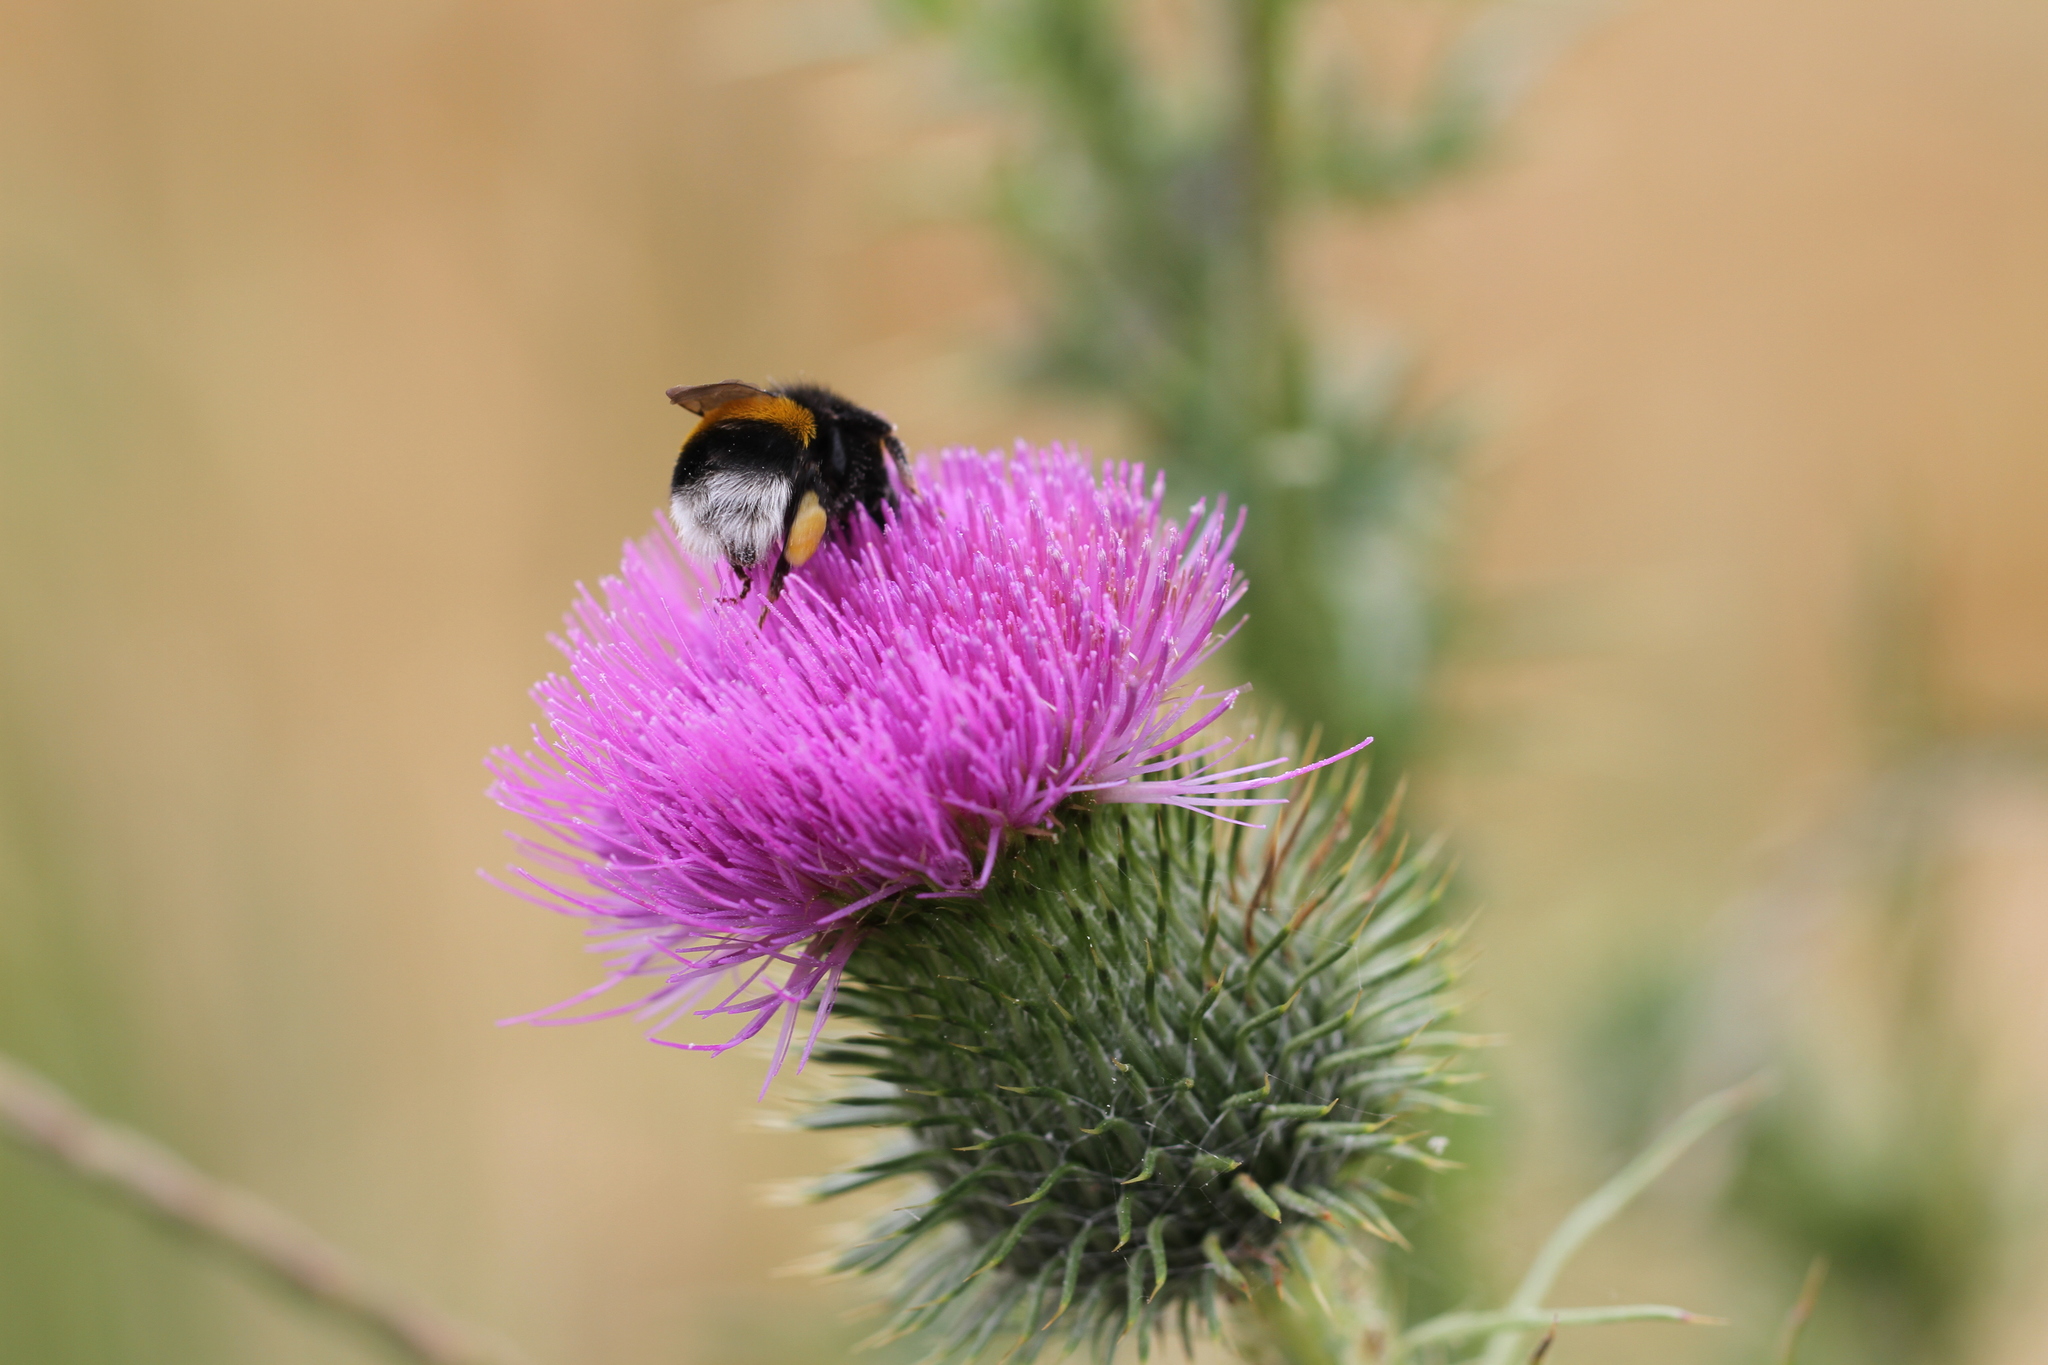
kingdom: Animalia
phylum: Arthropoda
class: Insecta
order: Hymenoptera
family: Apidae
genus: Bombus
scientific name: Bombus
